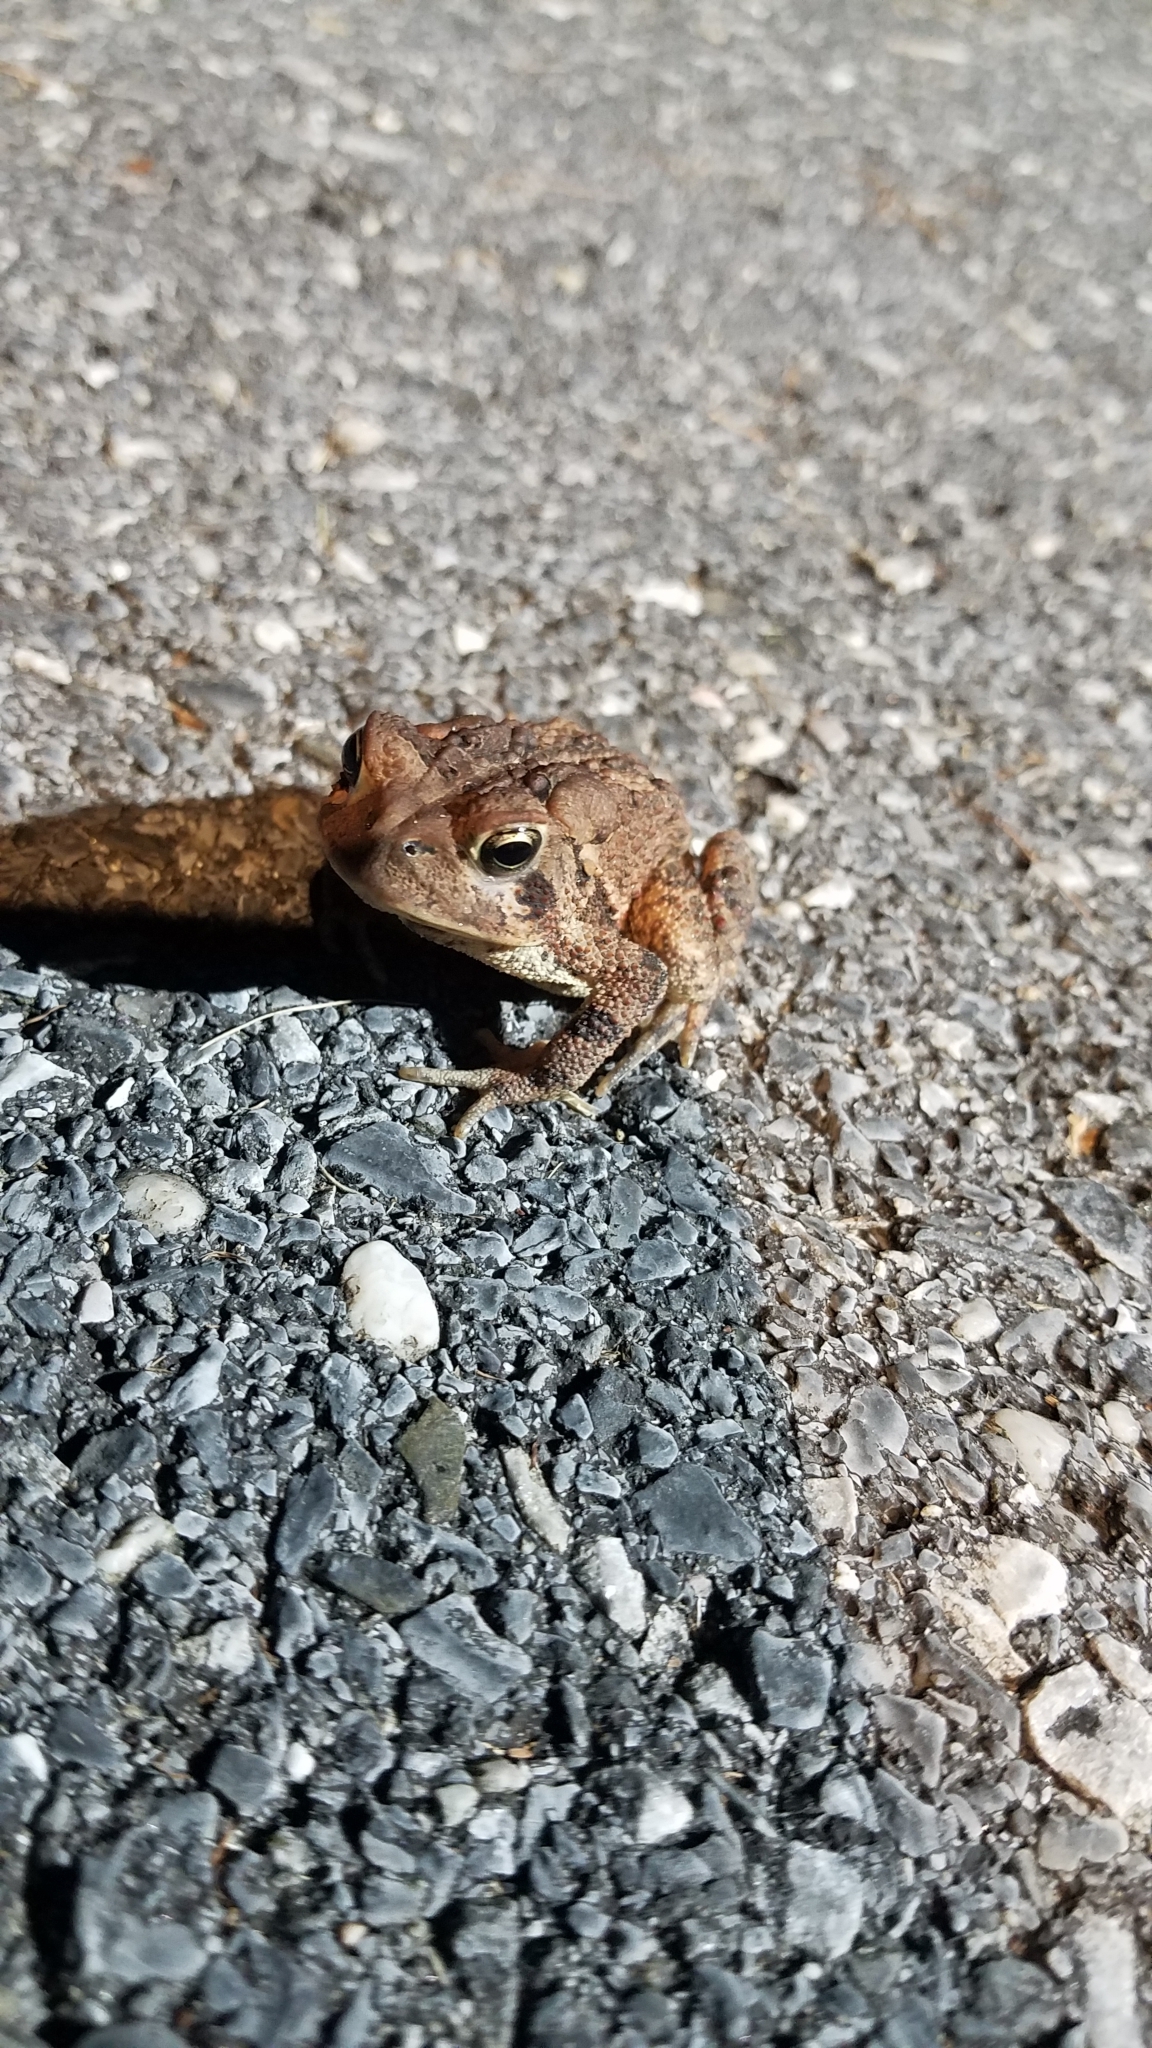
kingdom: Animalia
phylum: Chordata
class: Amphibia
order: Anura
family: Bufonidae
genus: Anaxyrus
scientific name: Anaxyrus americanus
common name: American toad
